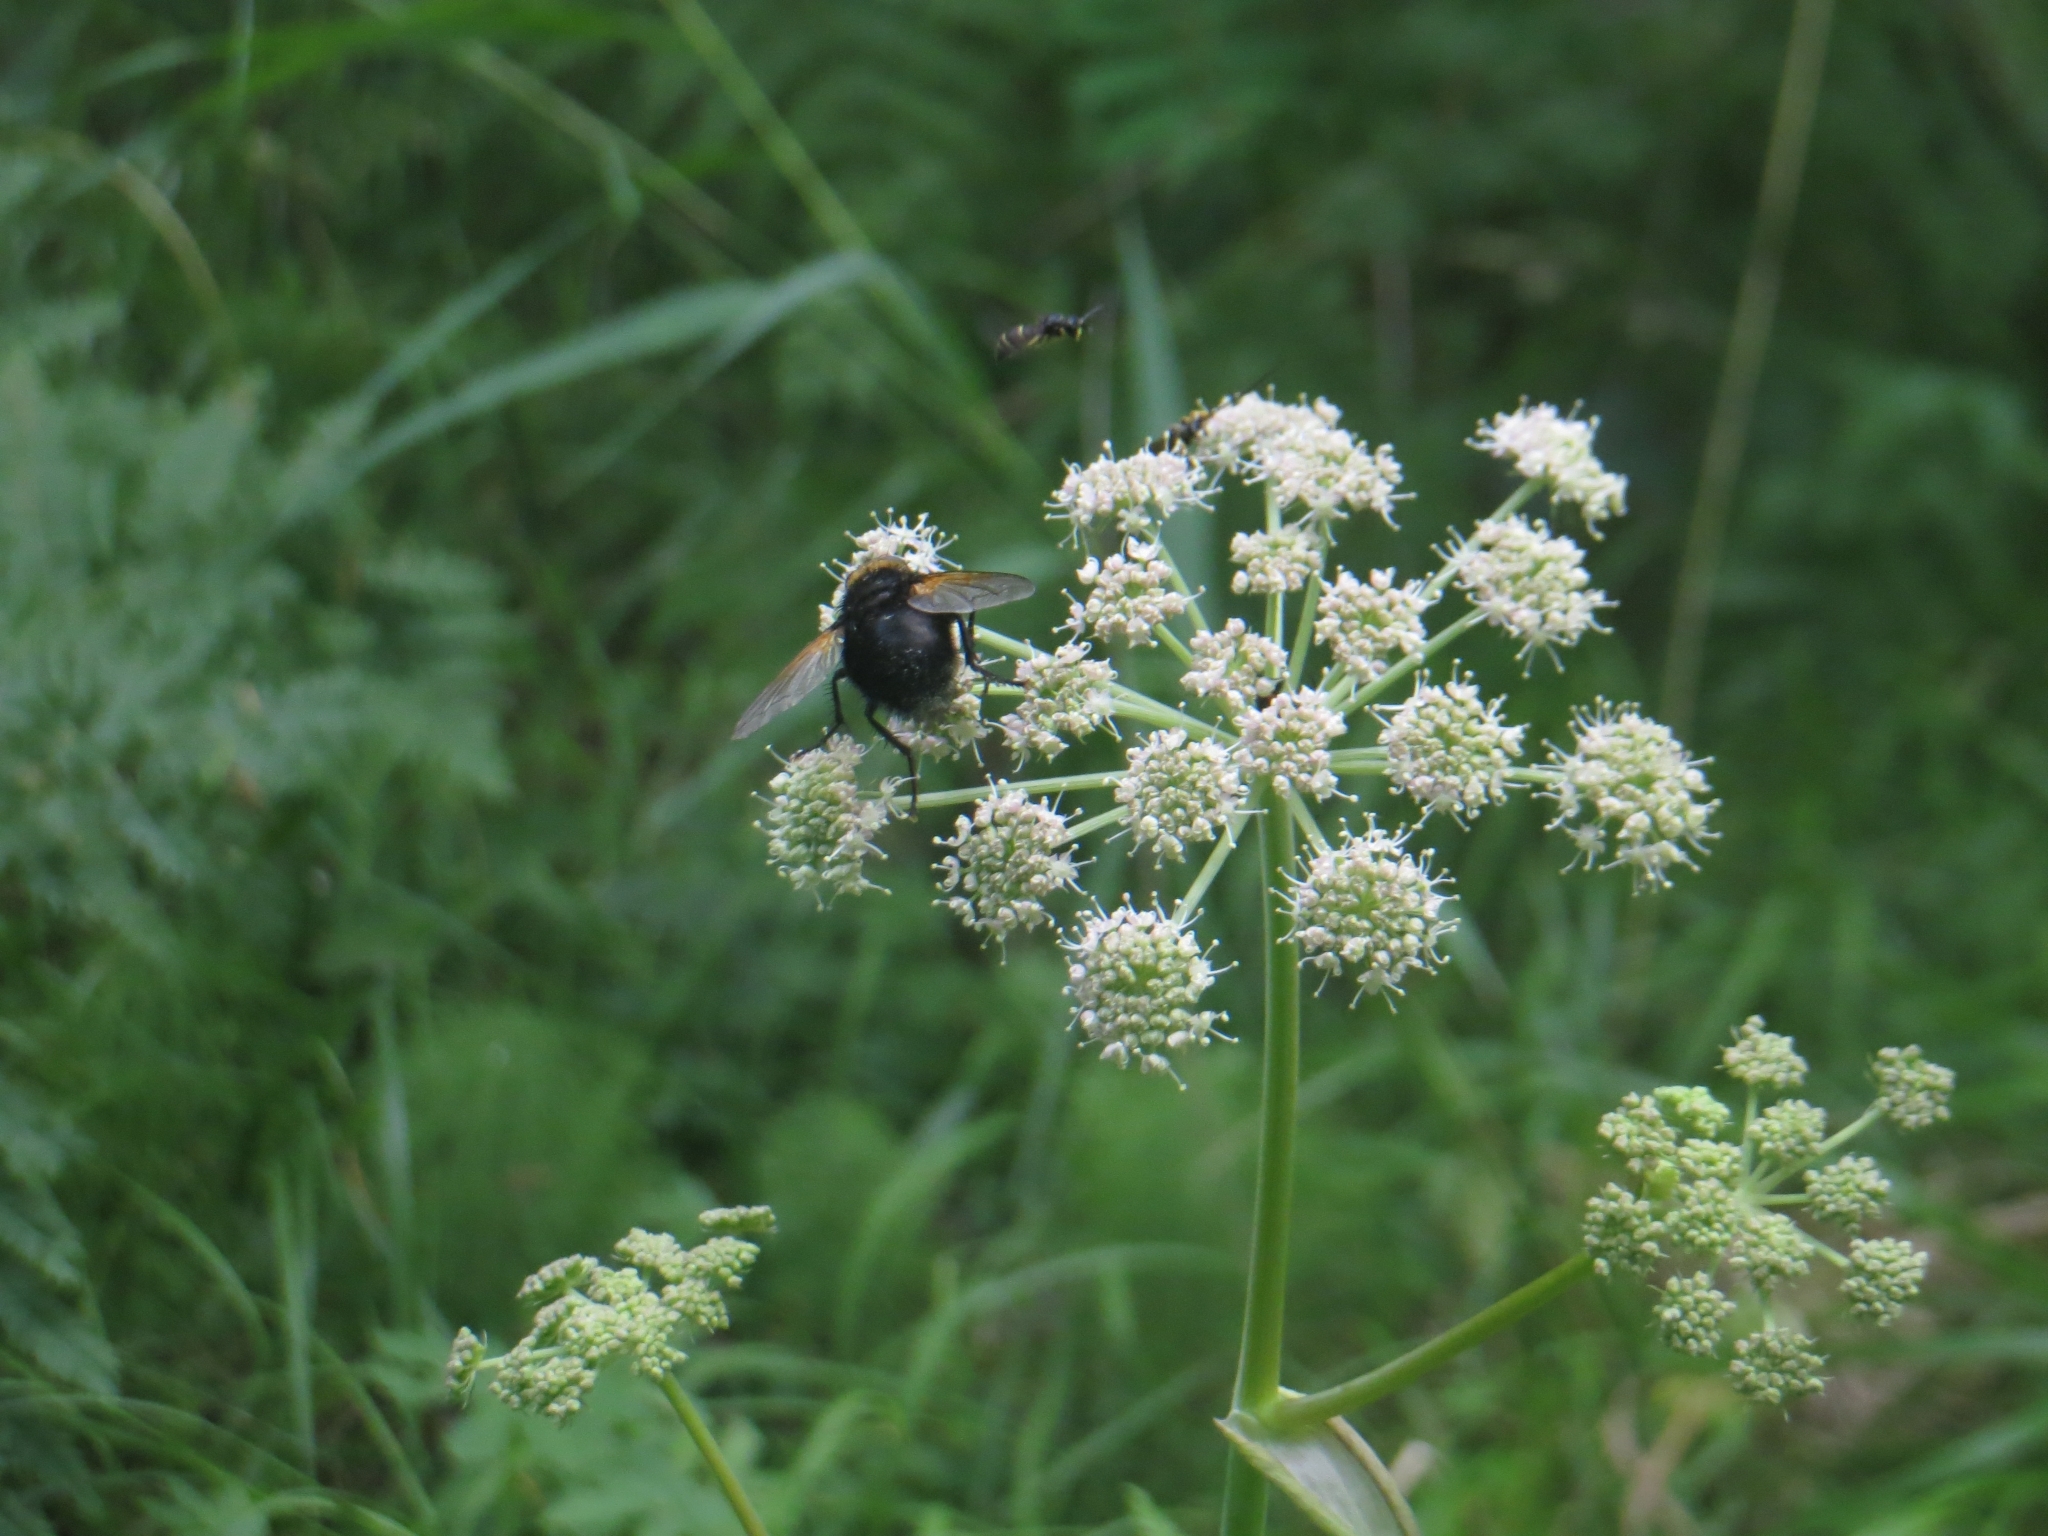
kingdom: Animalia
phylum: Arthropoda
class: Insecta
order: Diptera
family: Tachinidae
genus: Tachina
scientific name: Tachina grossa
